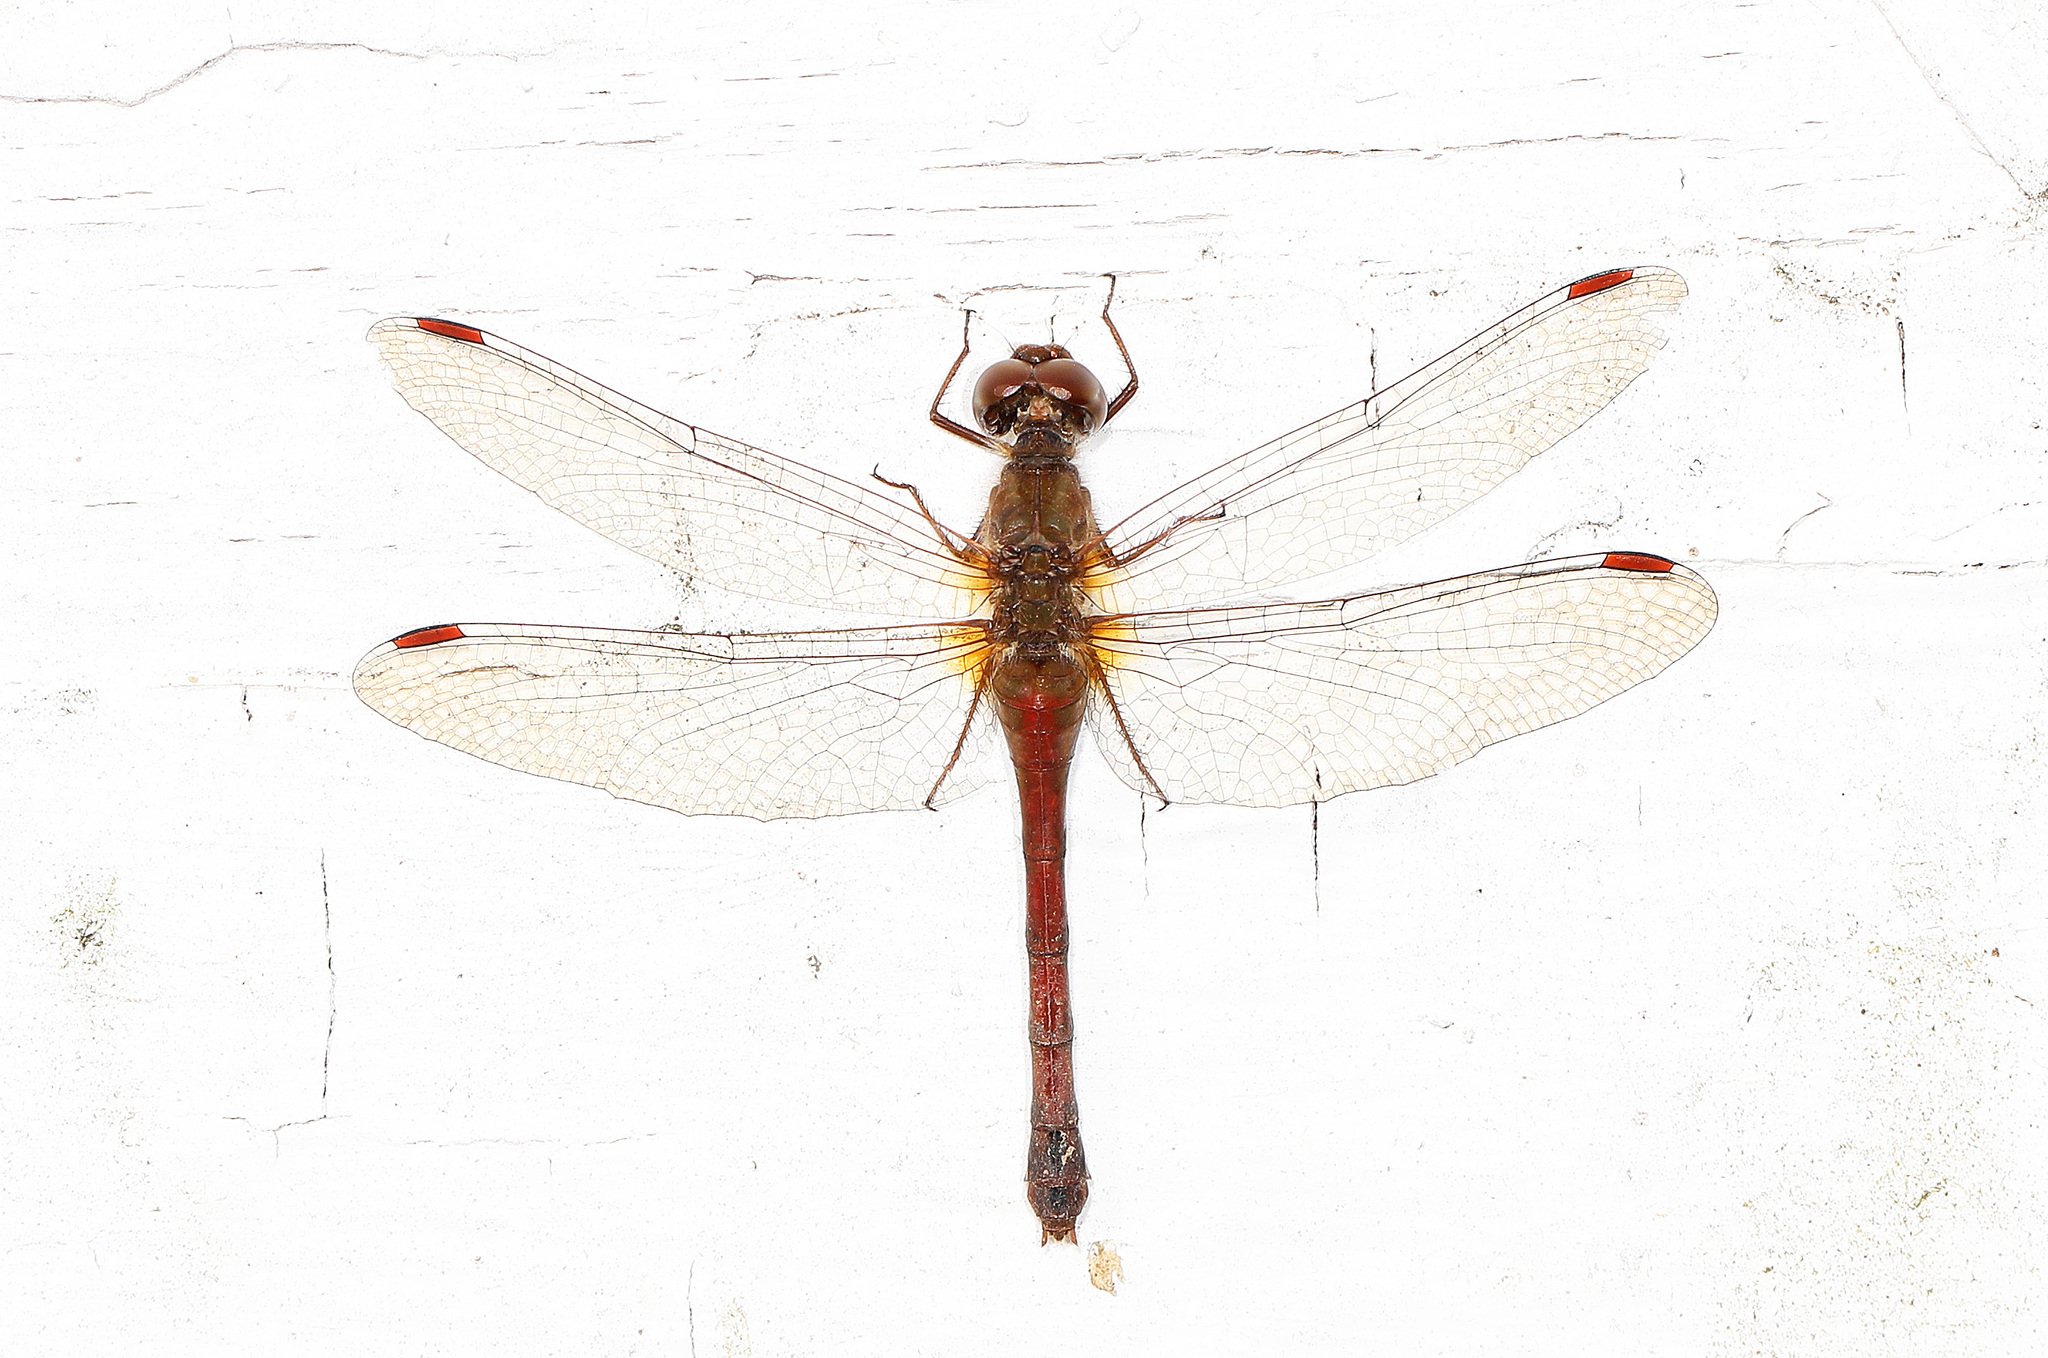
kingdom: Animalia
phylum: Arthropoda
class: Insecta
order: Odonata
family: Libellulidae
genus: Sympetrum
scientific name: Sympetrum vicinum
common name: Autumn meadowhawk
